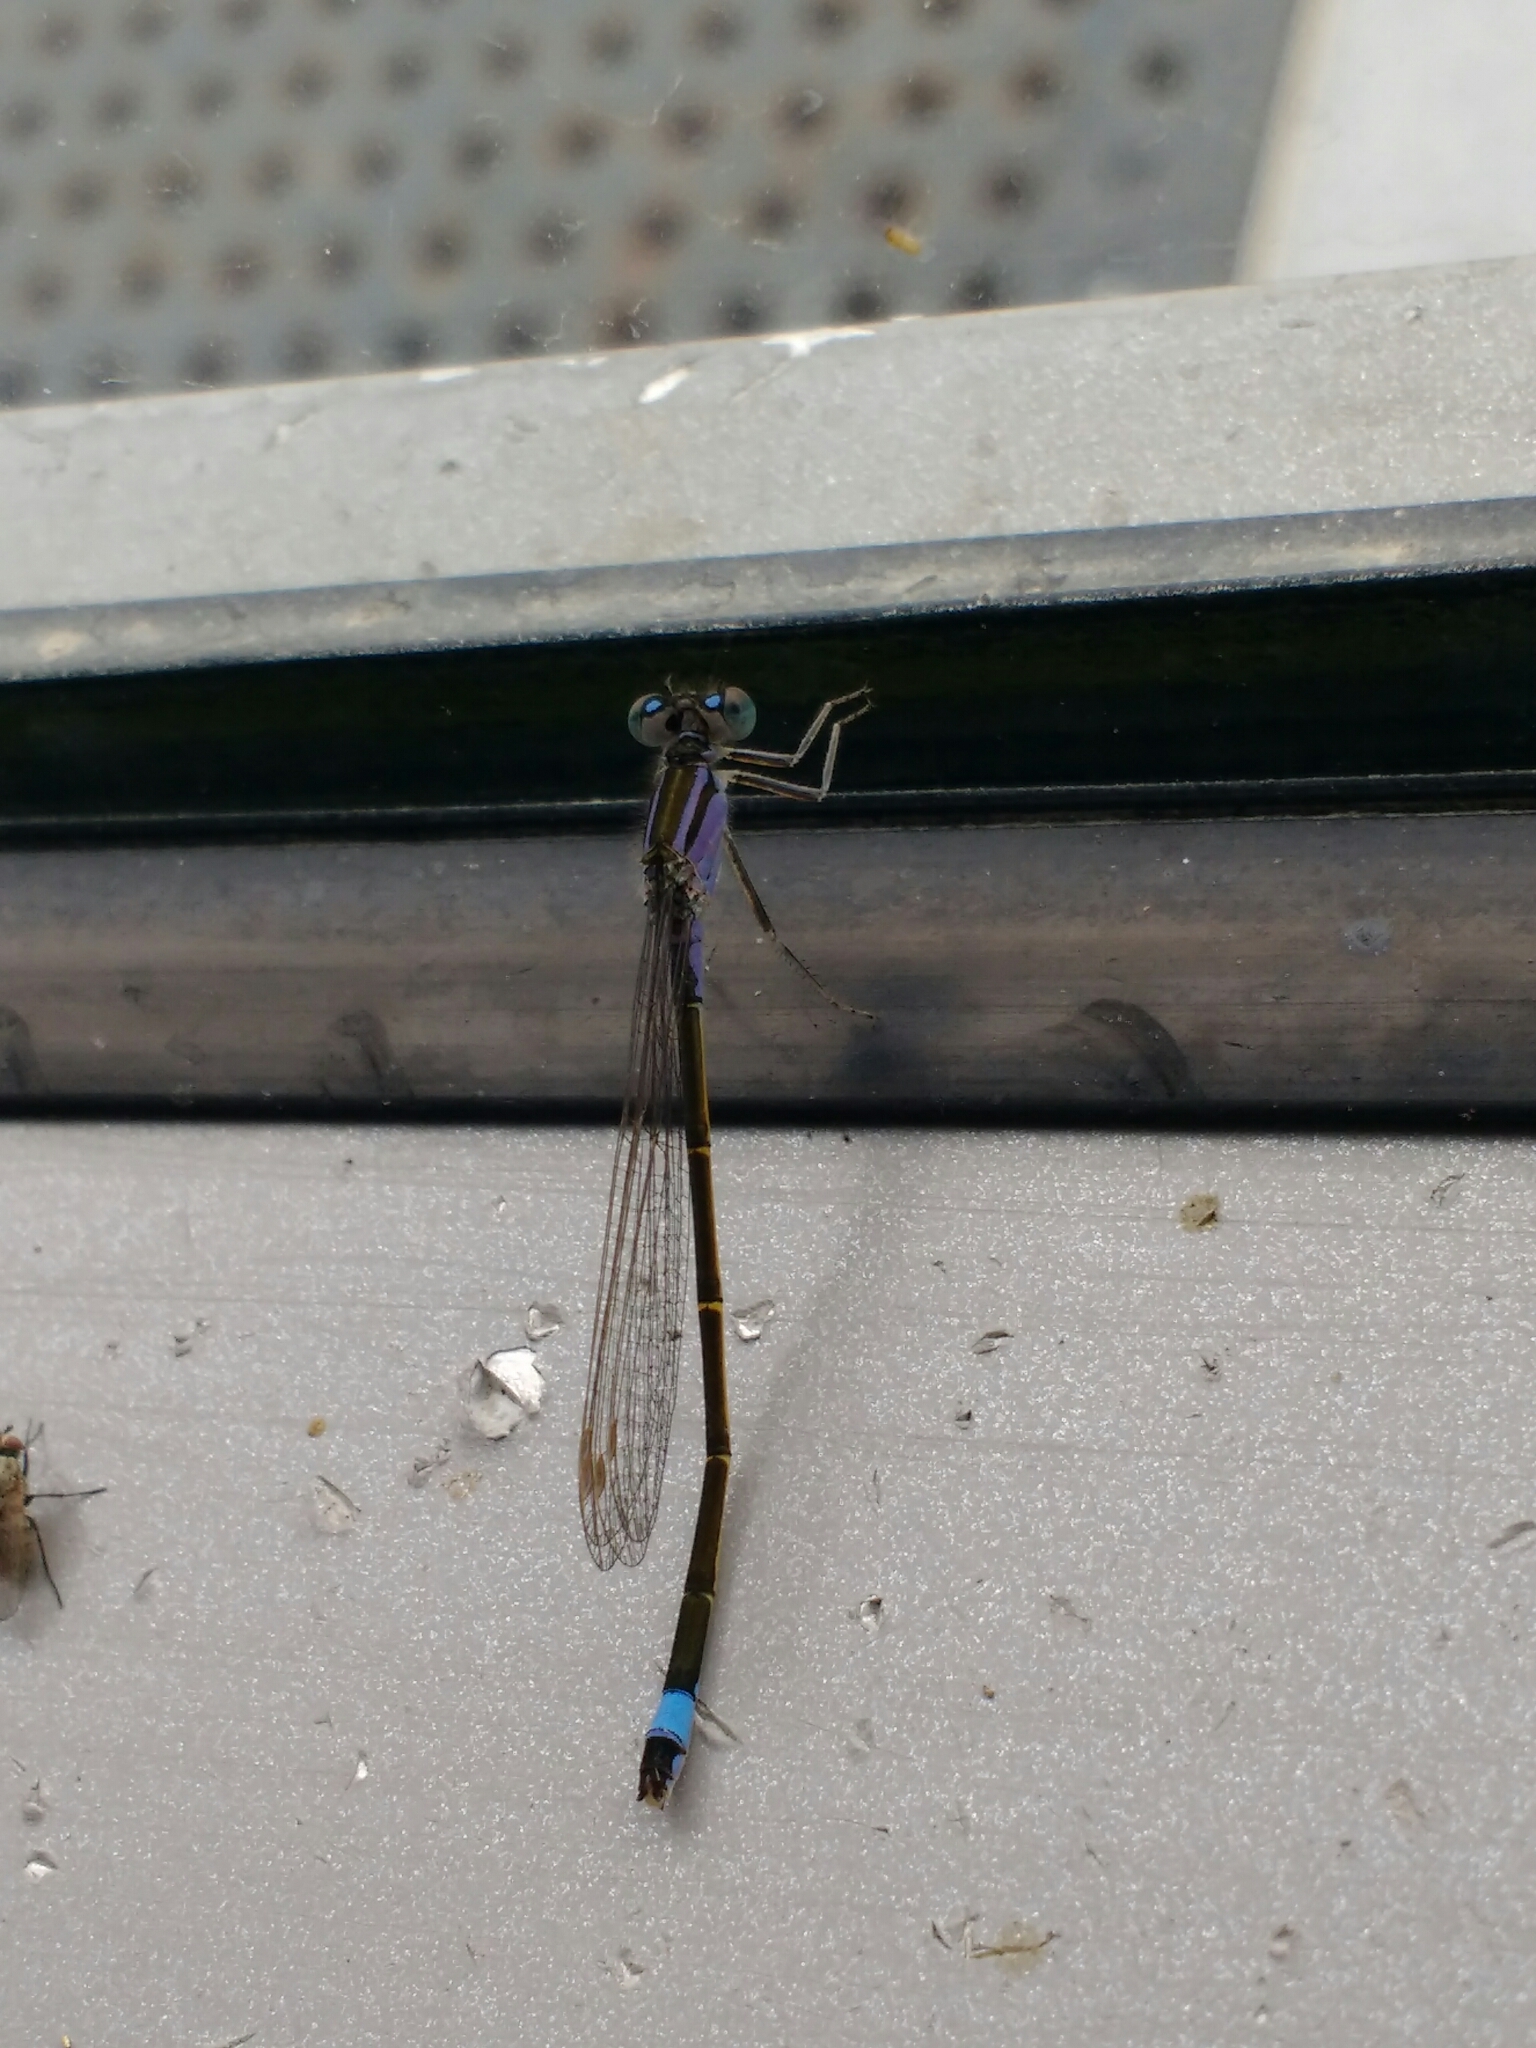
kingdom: Animalia
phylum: Arthropoda
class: Insecta
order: Odonata
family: Coenagrionidae
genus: Ischnura
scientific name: Ischnura elegans
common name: Blue-tailed damselfly
